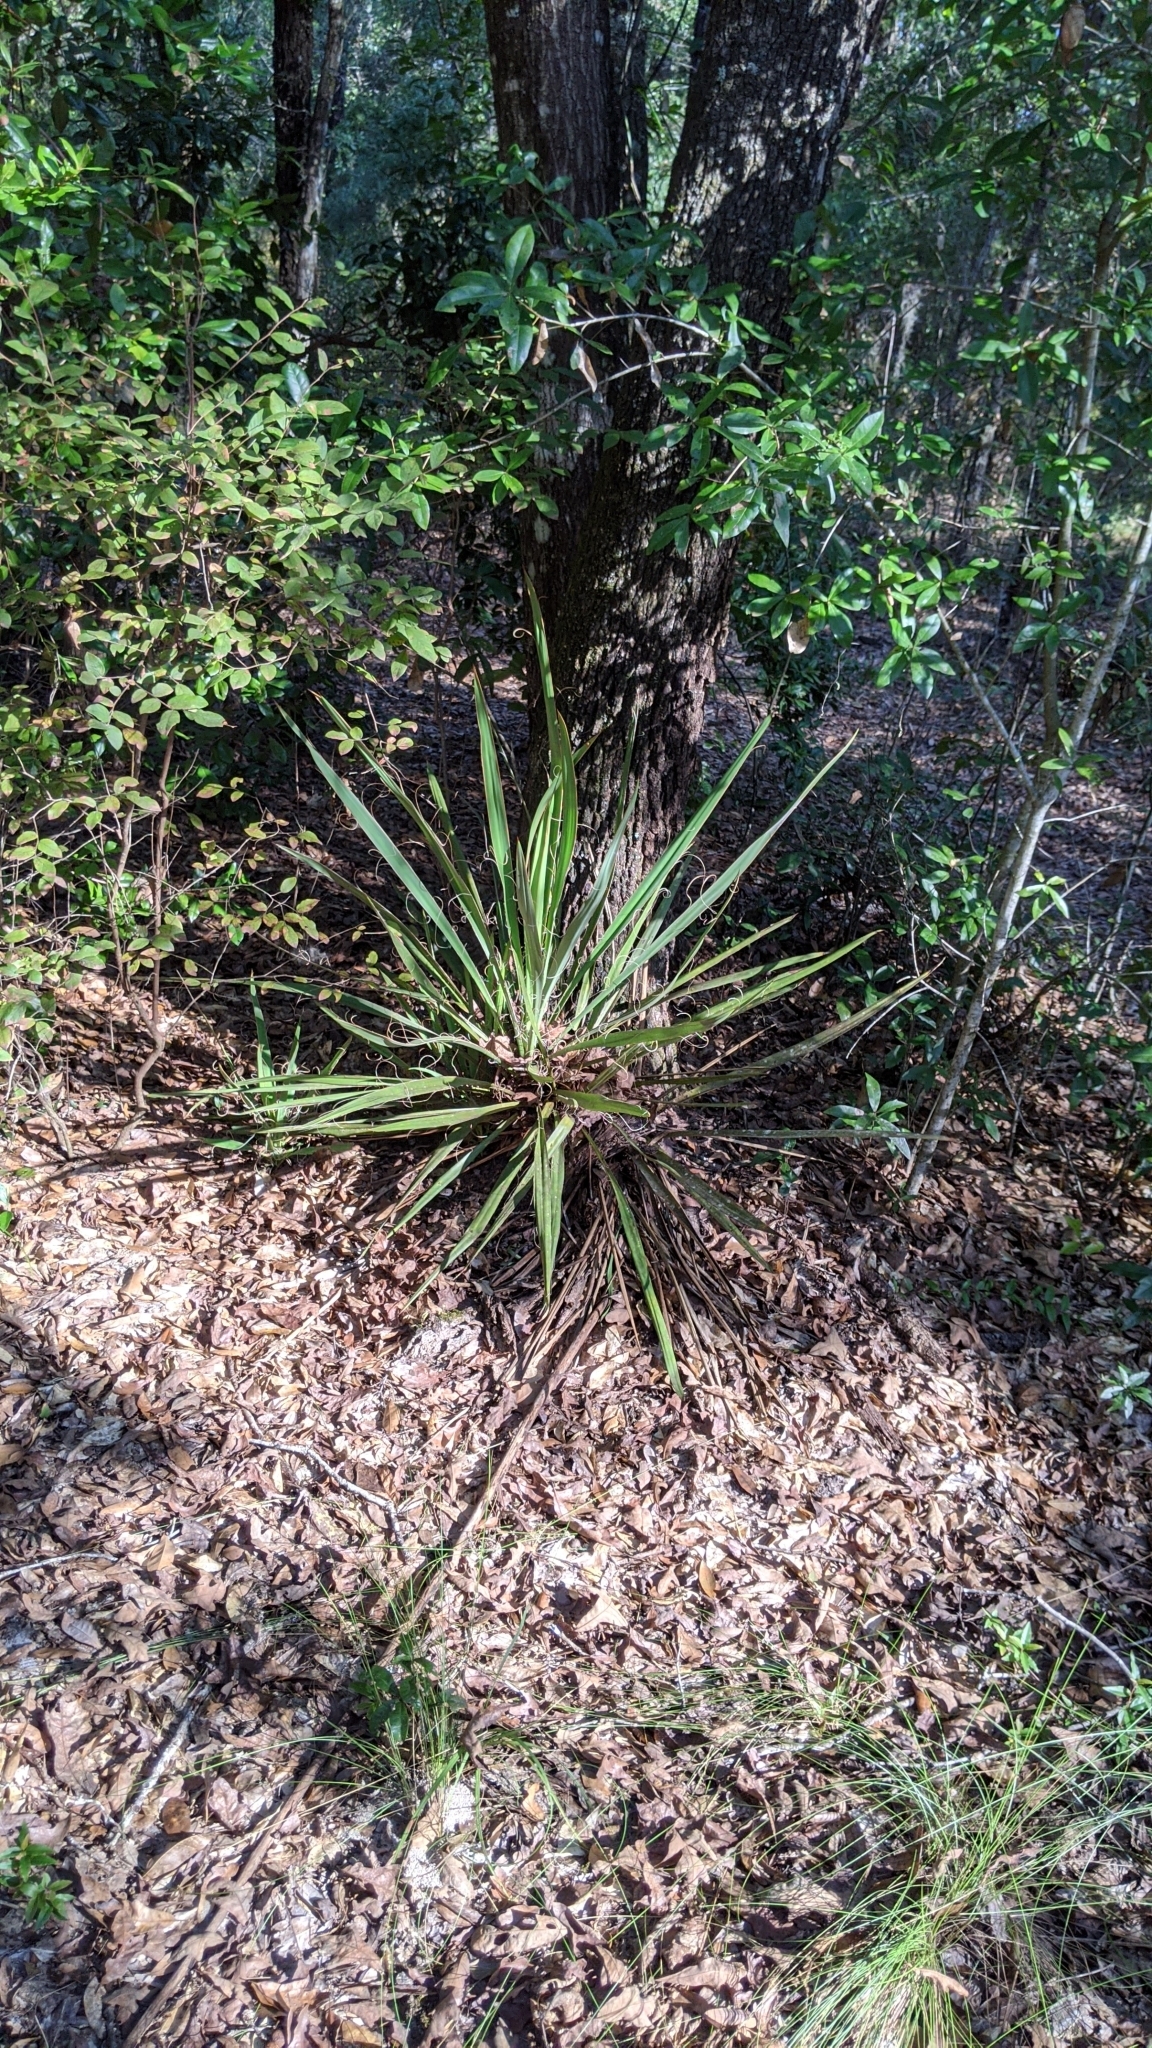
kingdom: Plantae
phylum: Tracheophyta
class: Liliopsida
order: Asparagales
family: Asparagaceae
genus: Yucca
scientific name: Yucca filamentosa
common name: Adam's-needle
